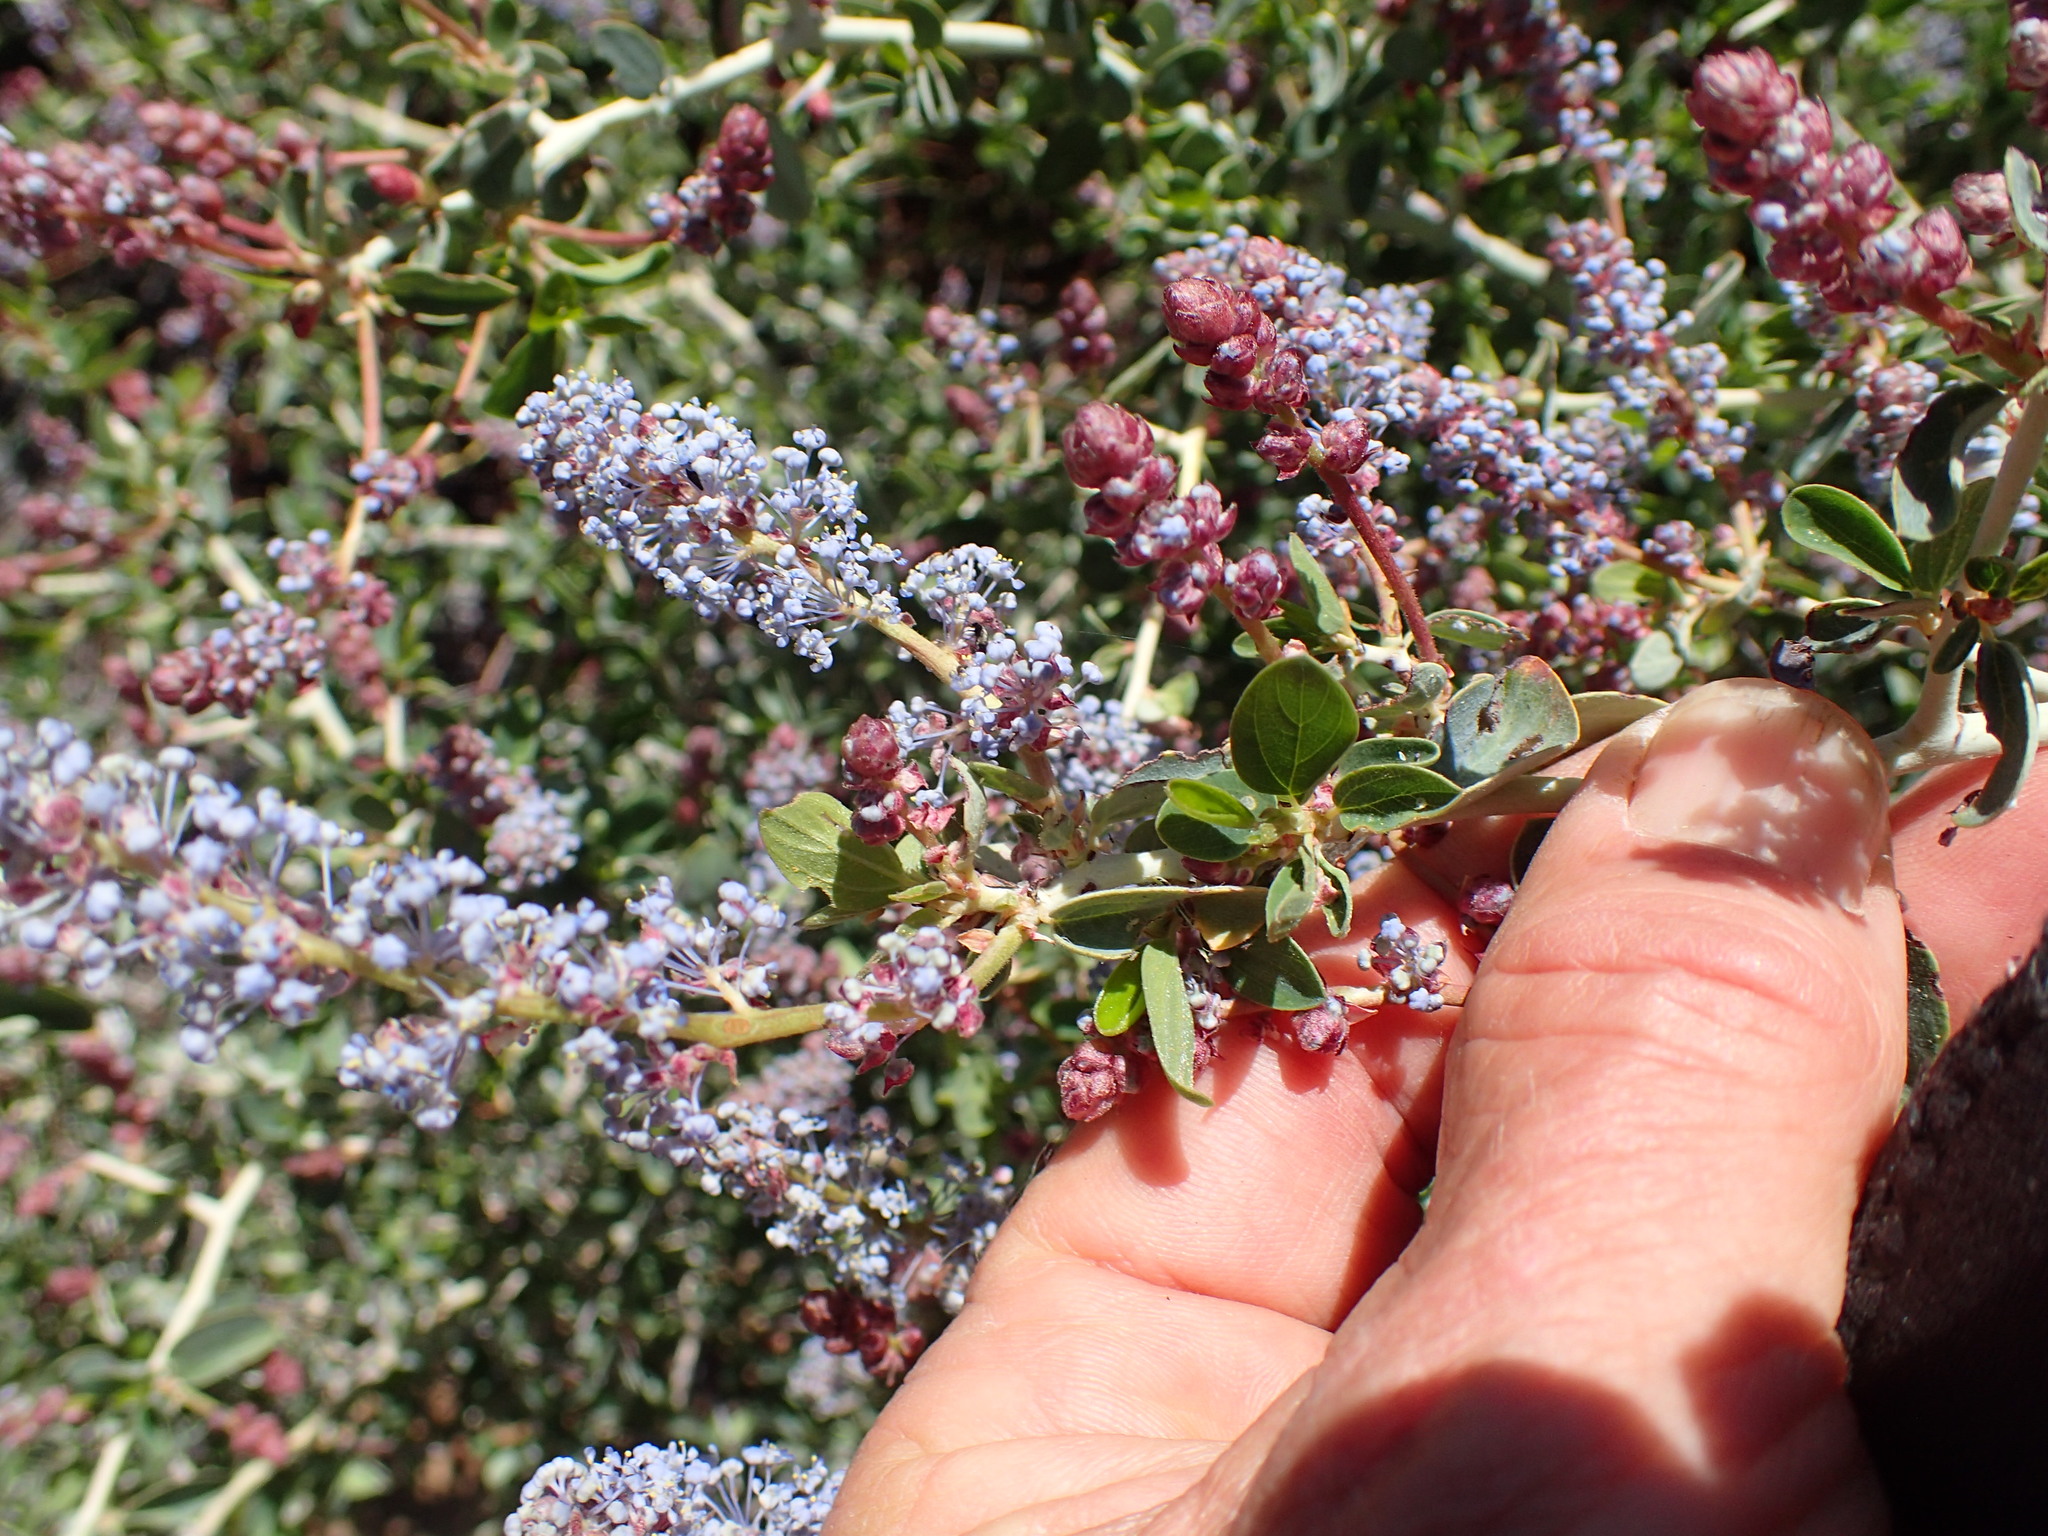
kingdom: Plantae
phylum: Tracheophyta
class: Magnoliopsida
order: Rosales
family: Rhamnaceae
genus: Ceanothus
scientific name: Ceanothus leucodermis
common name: Chaparral whitethorn
